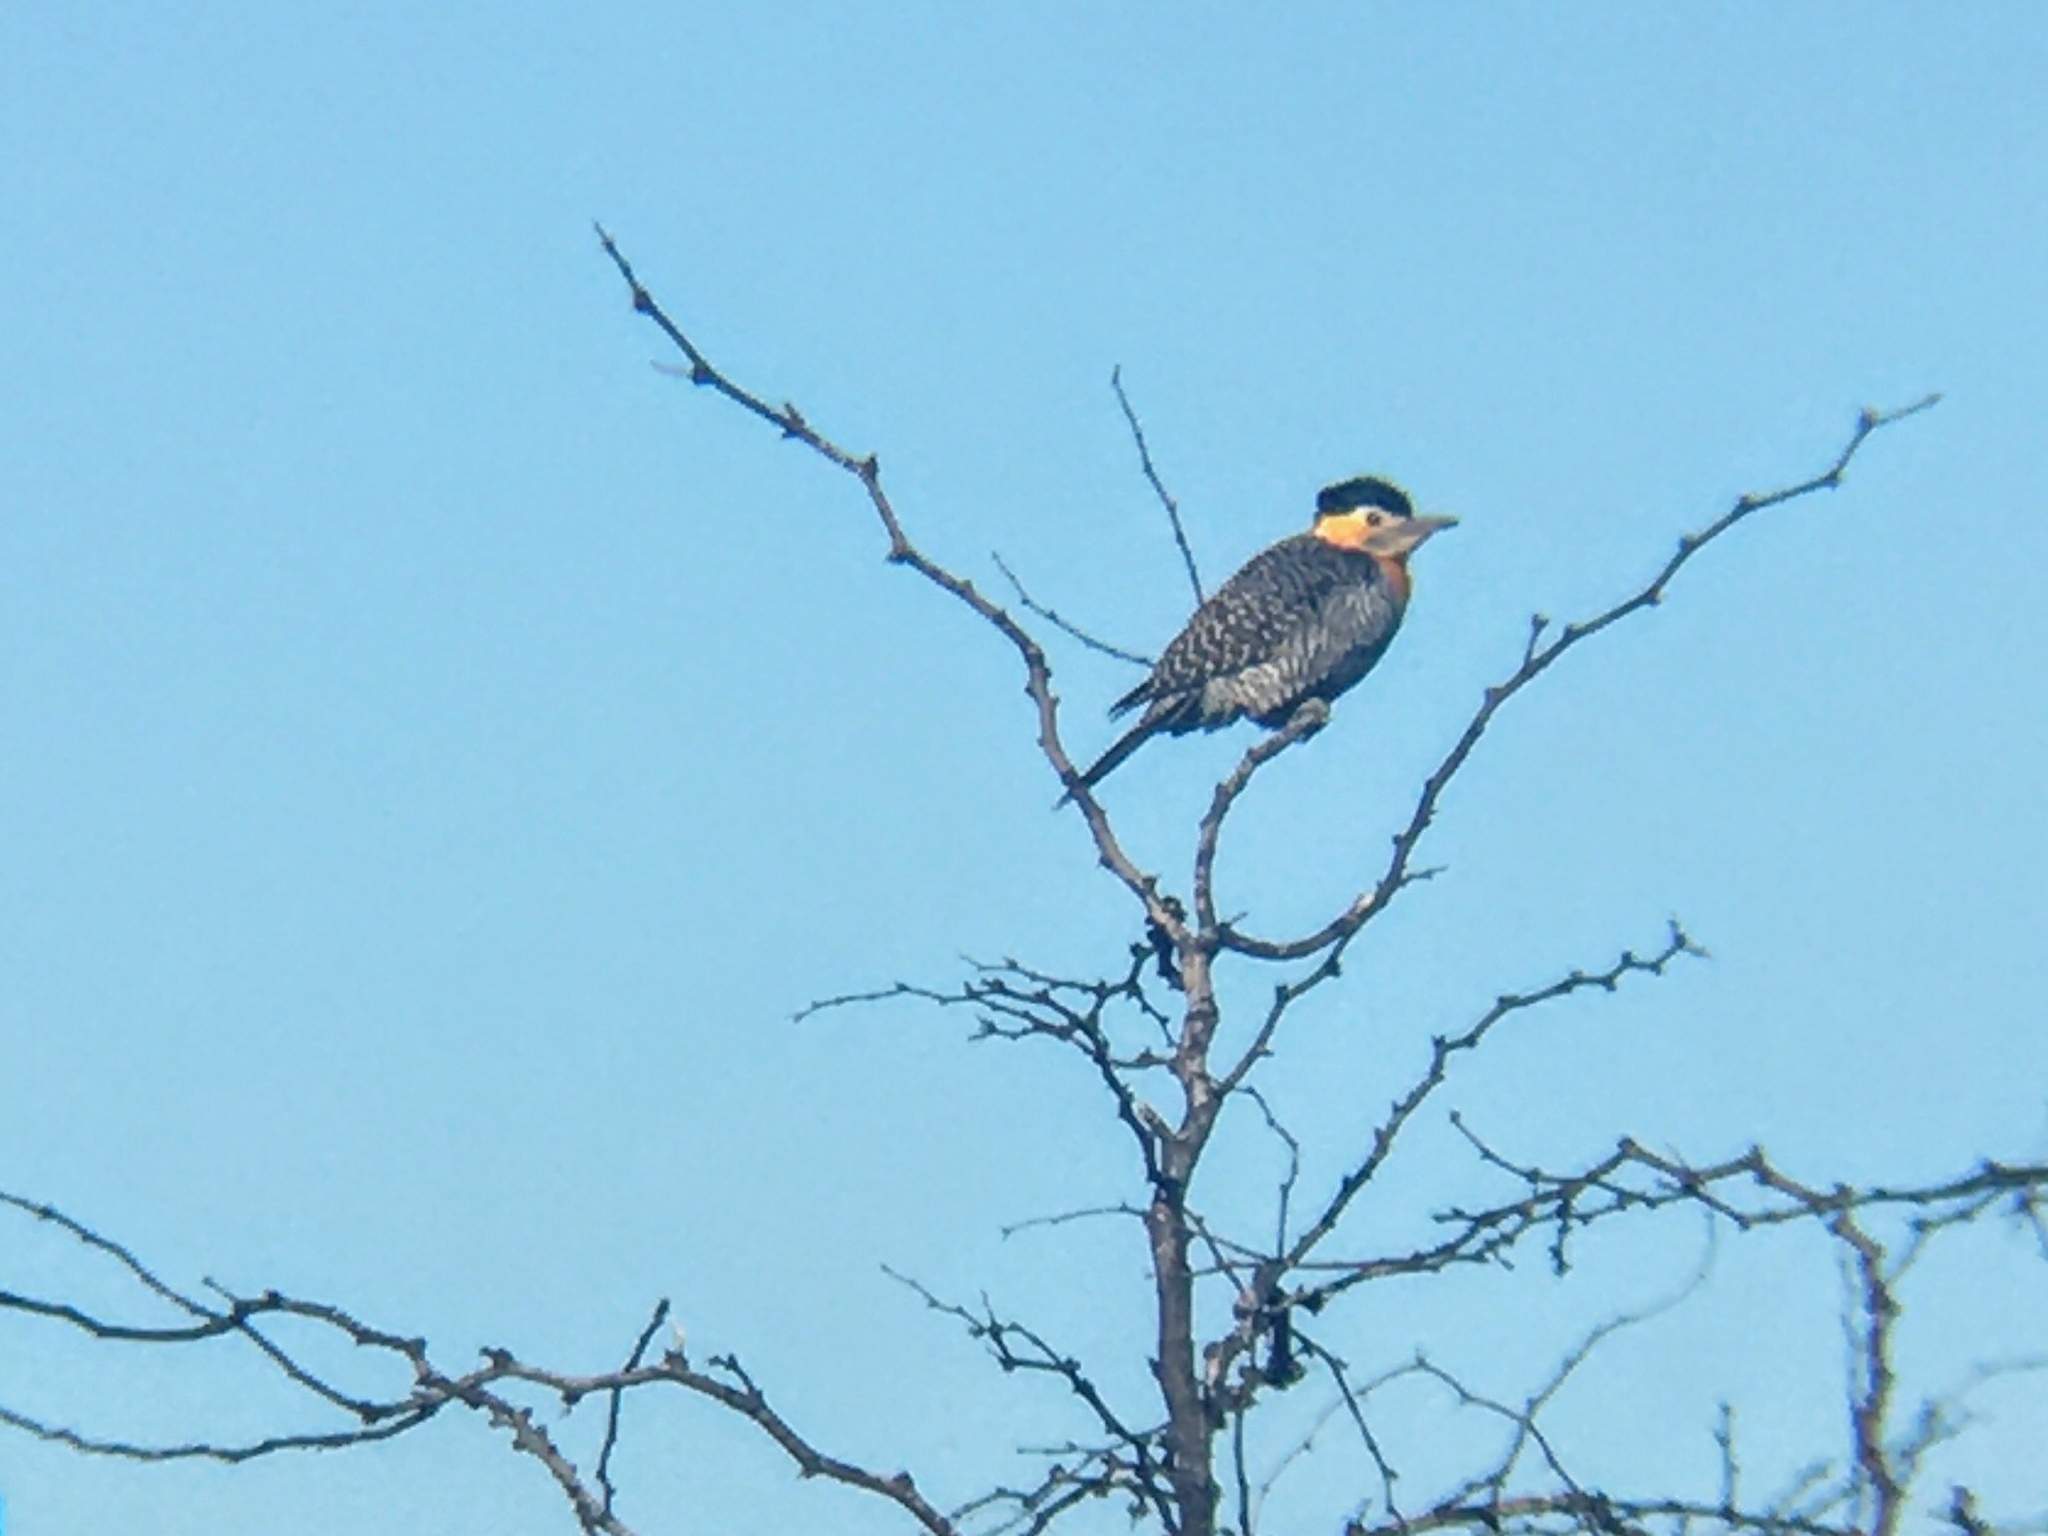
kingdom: Animalia
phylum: Chordata
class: Aves
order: Piciformes
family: Picidae
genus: Colaptes
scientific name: Colaptes campestris
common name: Campo flicker
